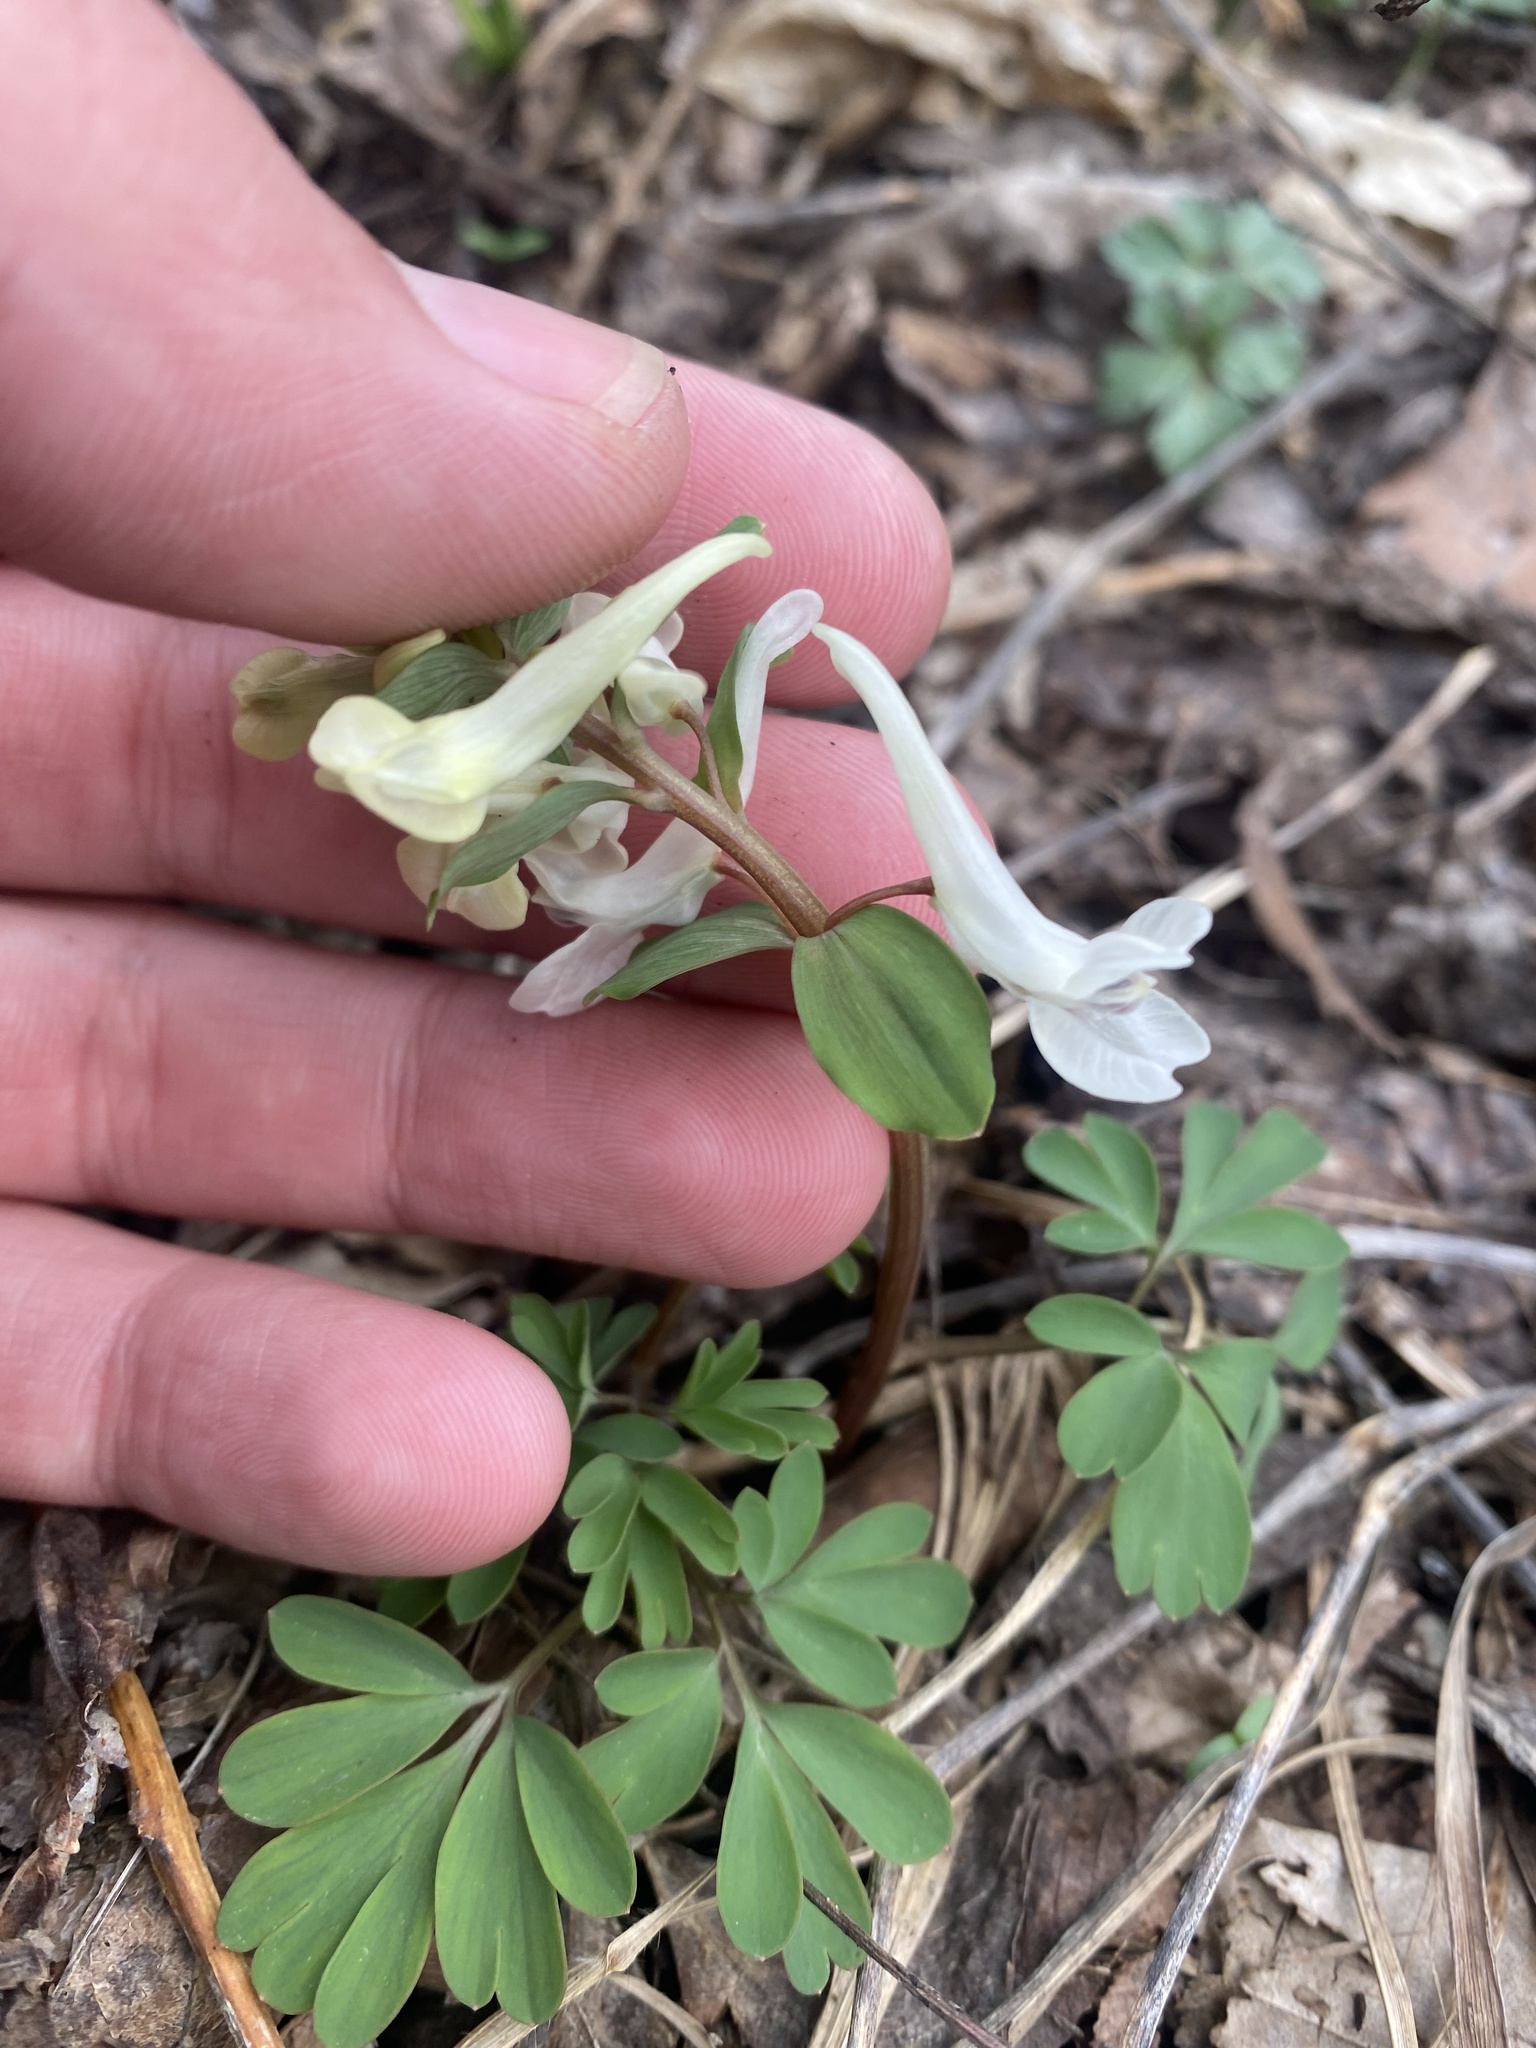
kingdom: Plantae
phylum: Tracheophyta
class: Magnoliopsida
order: Ranunculales
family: Papaveraceae
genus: Corydalis
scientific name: Corydalis caucasica
